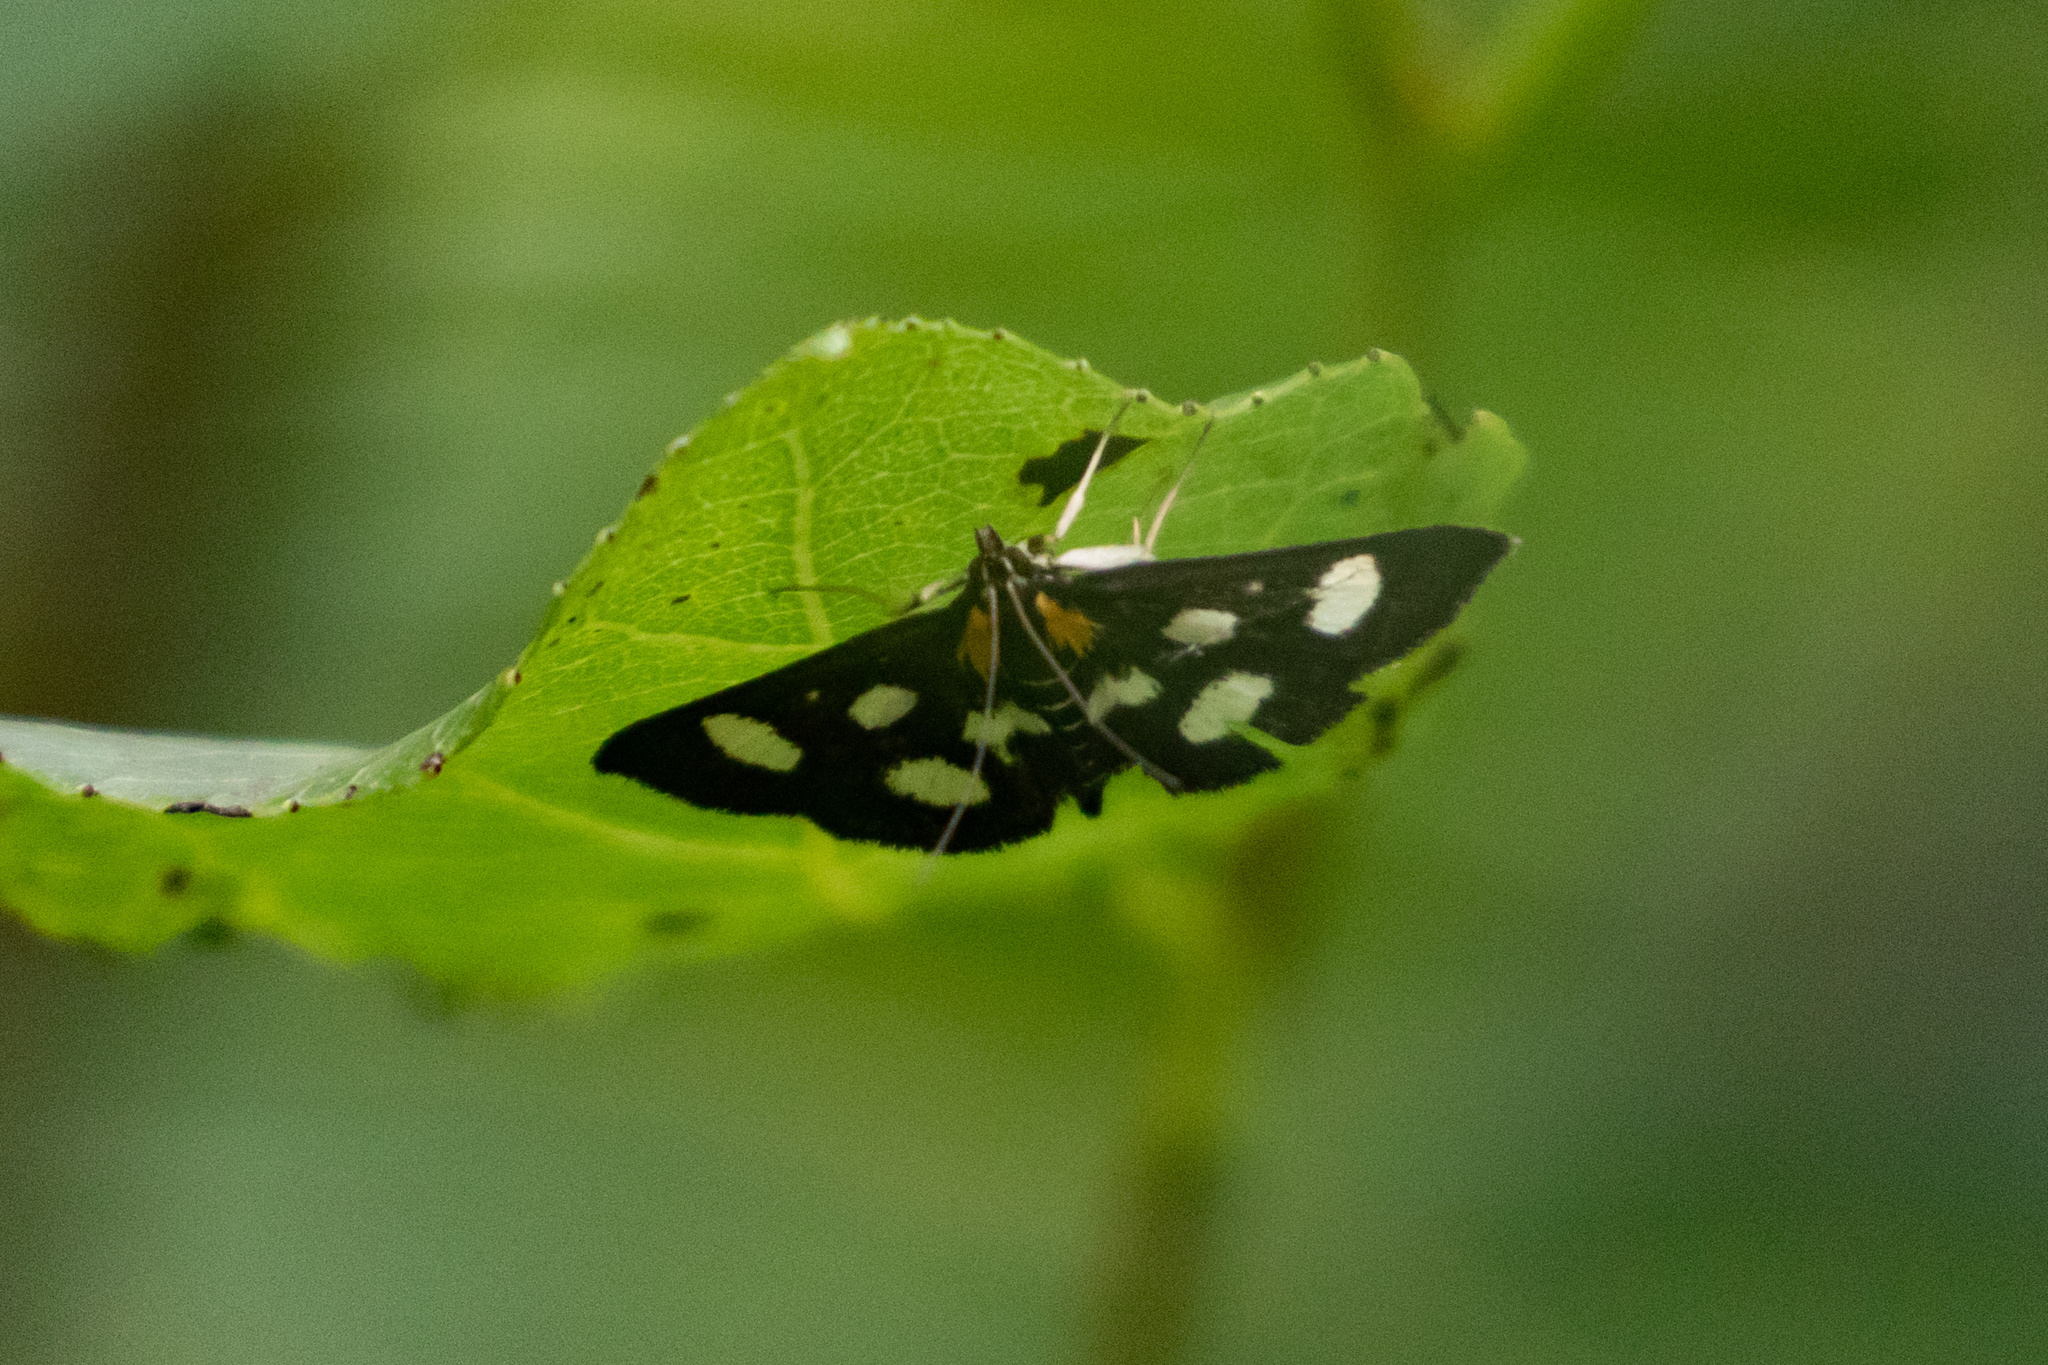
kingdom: Animalia
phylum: Arthropoda
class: Insecta
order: Lepidoptera
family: Crambidae
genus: Anania
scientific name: Anania funebris
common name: White-spotted sable moth
